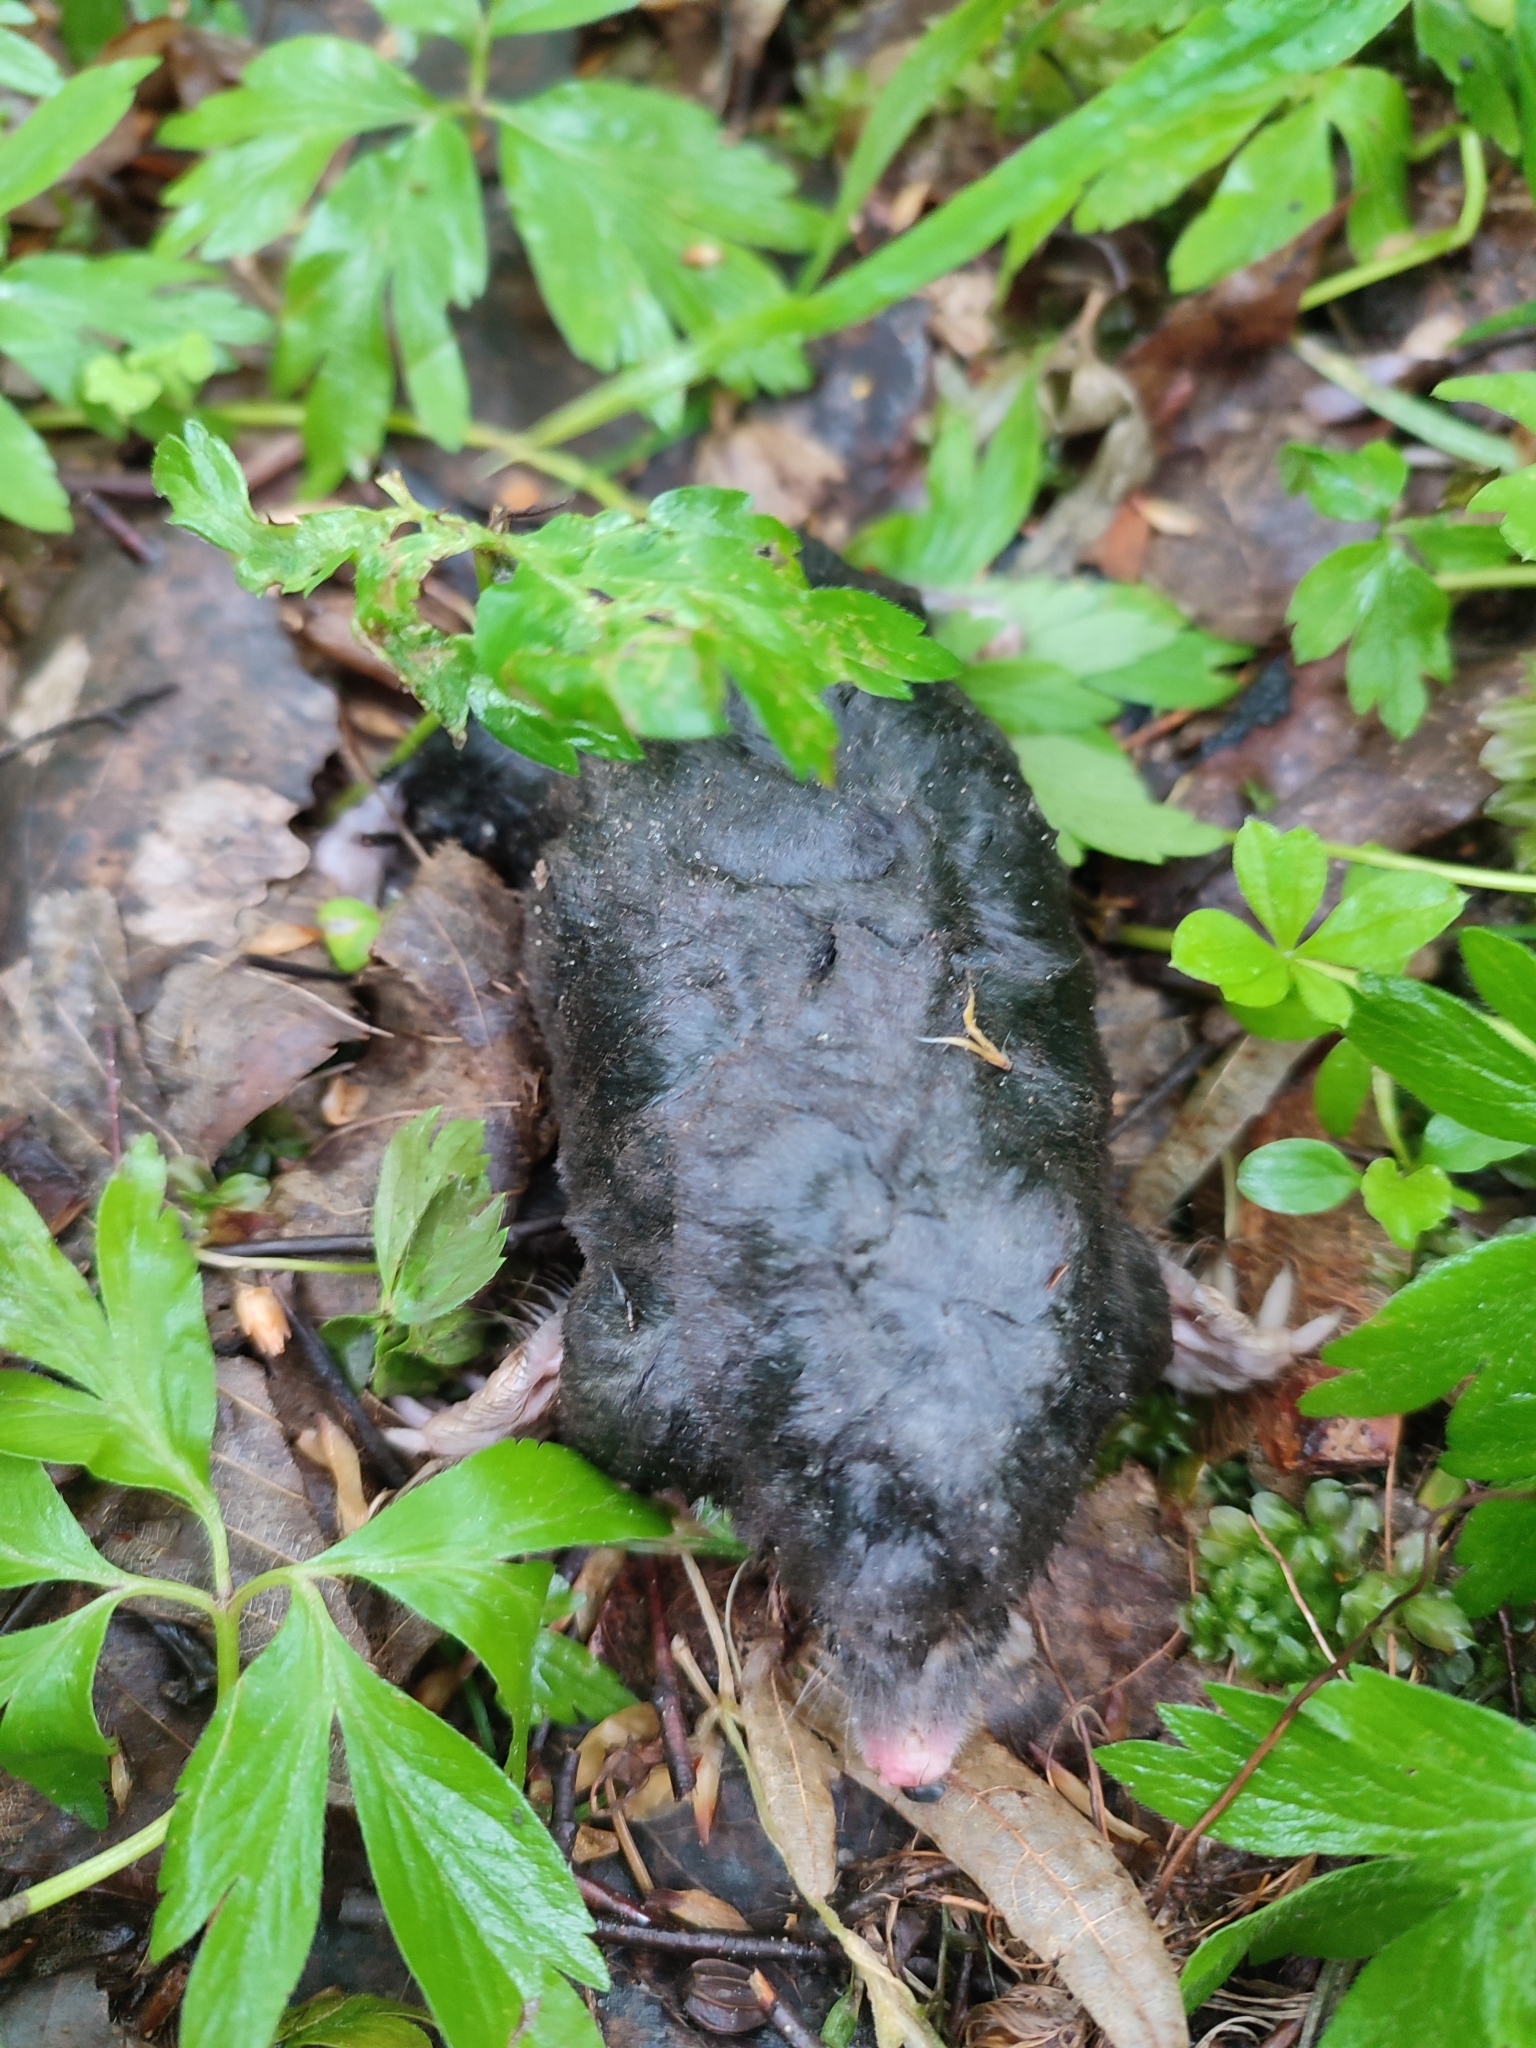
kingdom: Animalia
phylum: Chordata
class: Mammalia
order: Soricomorpha
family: Talpidae
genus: Talpa
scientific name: Talpa europaea
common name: European mole
